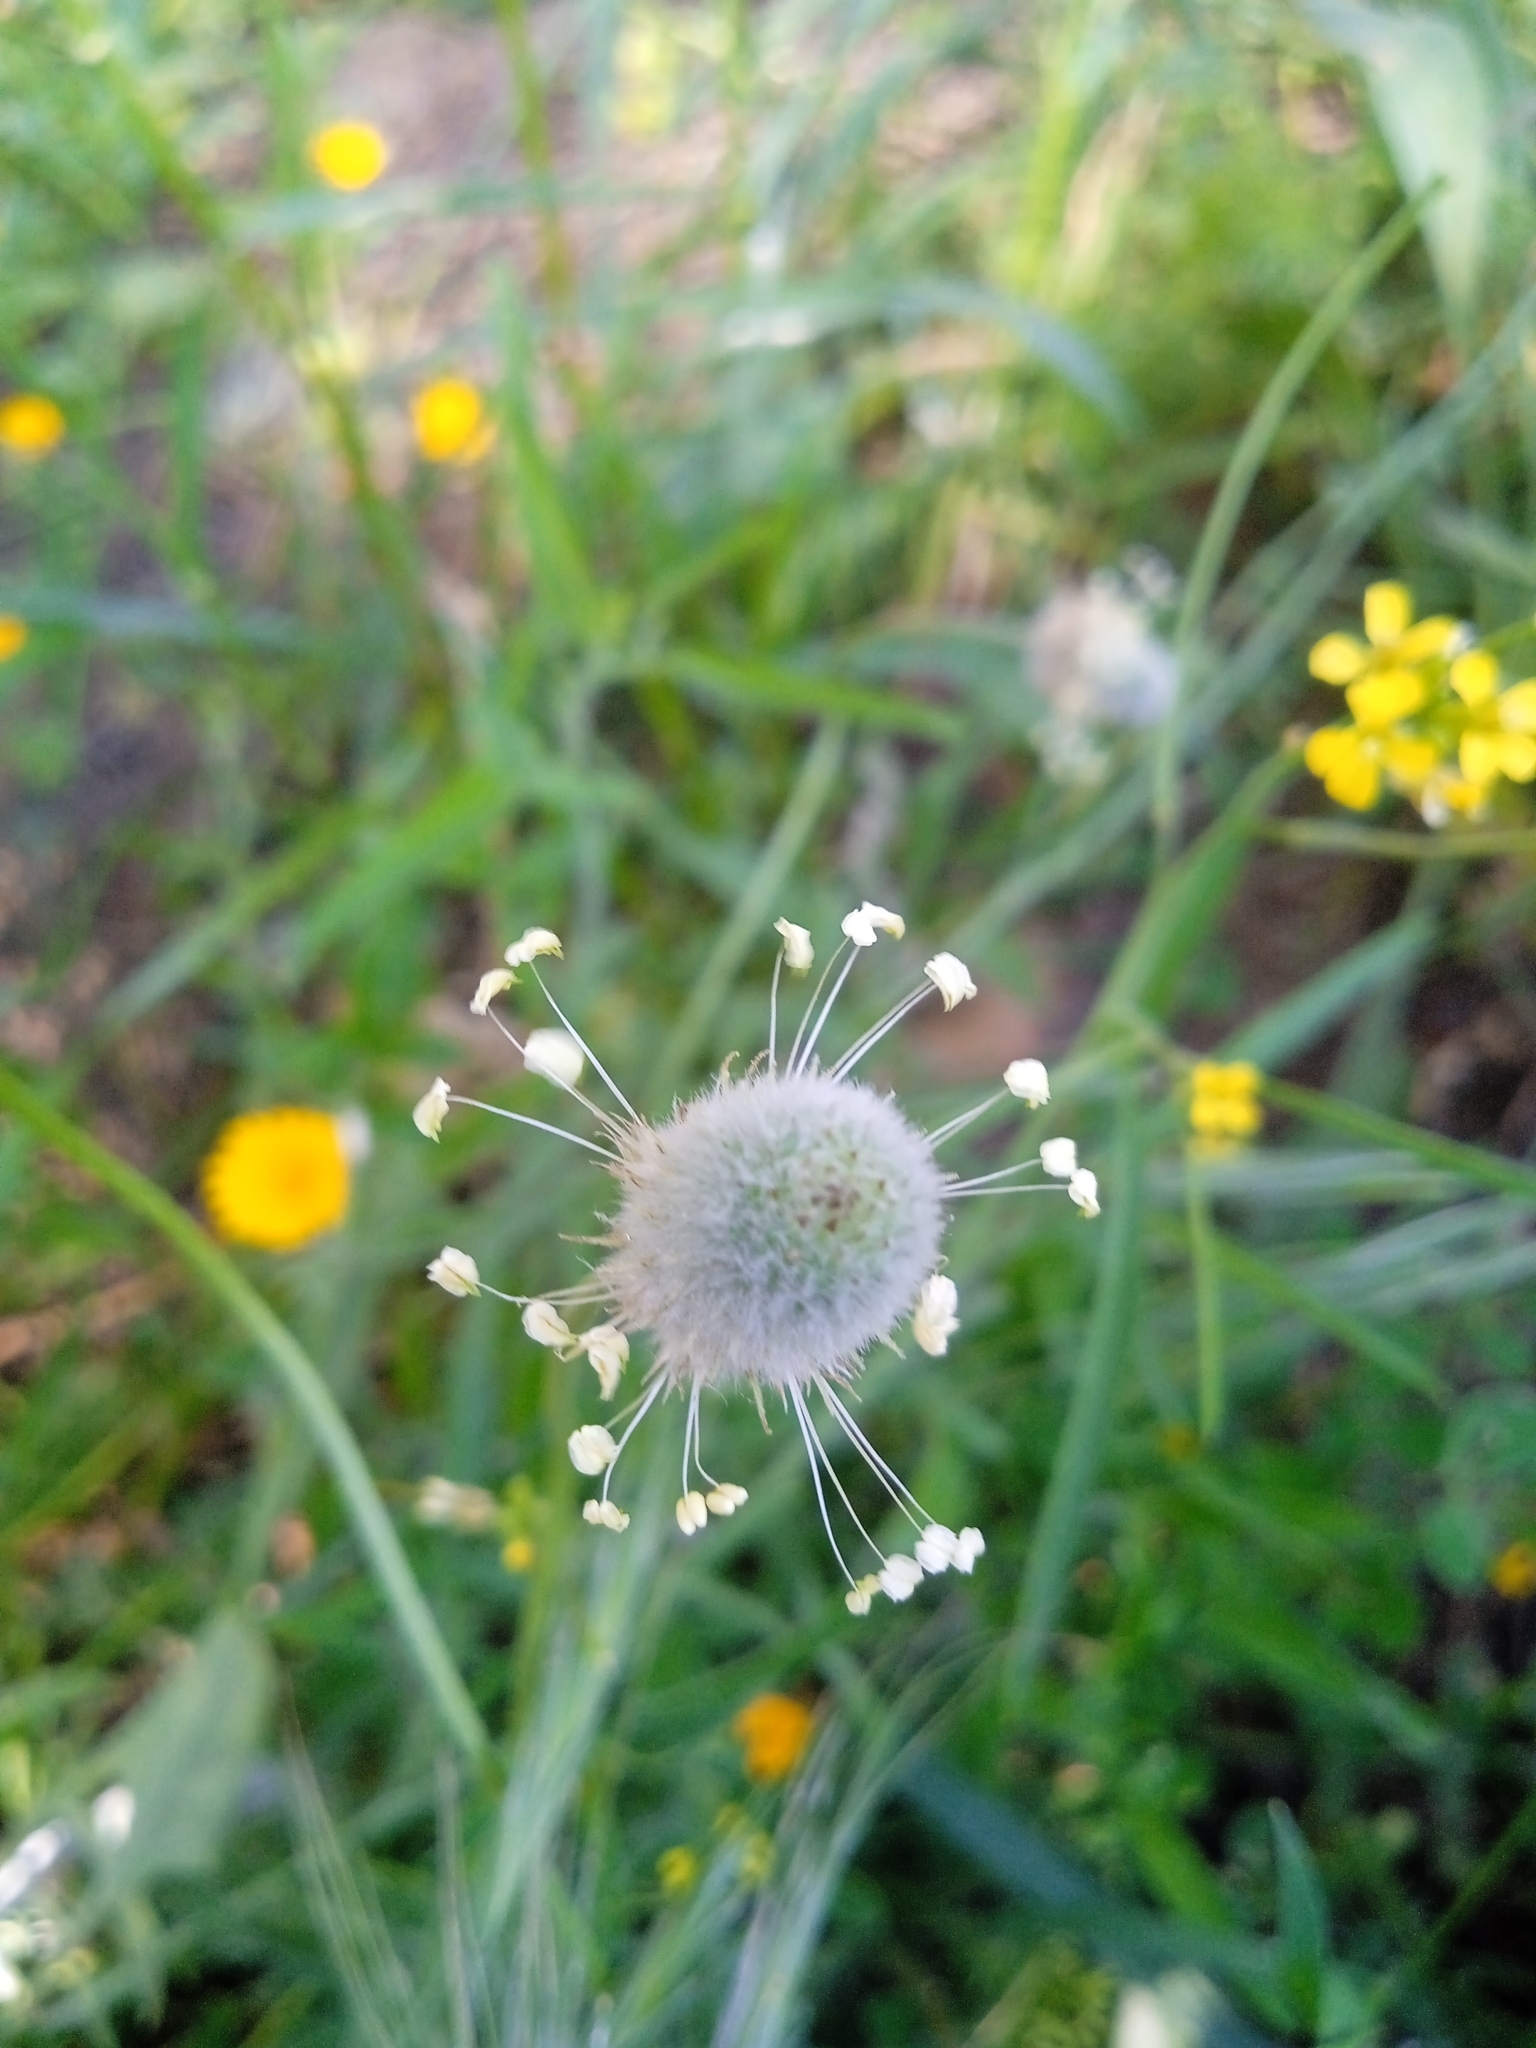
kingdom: Plantae
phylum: Tracheophyta
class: Magnoliopsida
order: Lamiales
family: Plantaginaceae
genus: Plantago
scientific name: Plantago lagopus
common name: Hare-foot plantain
